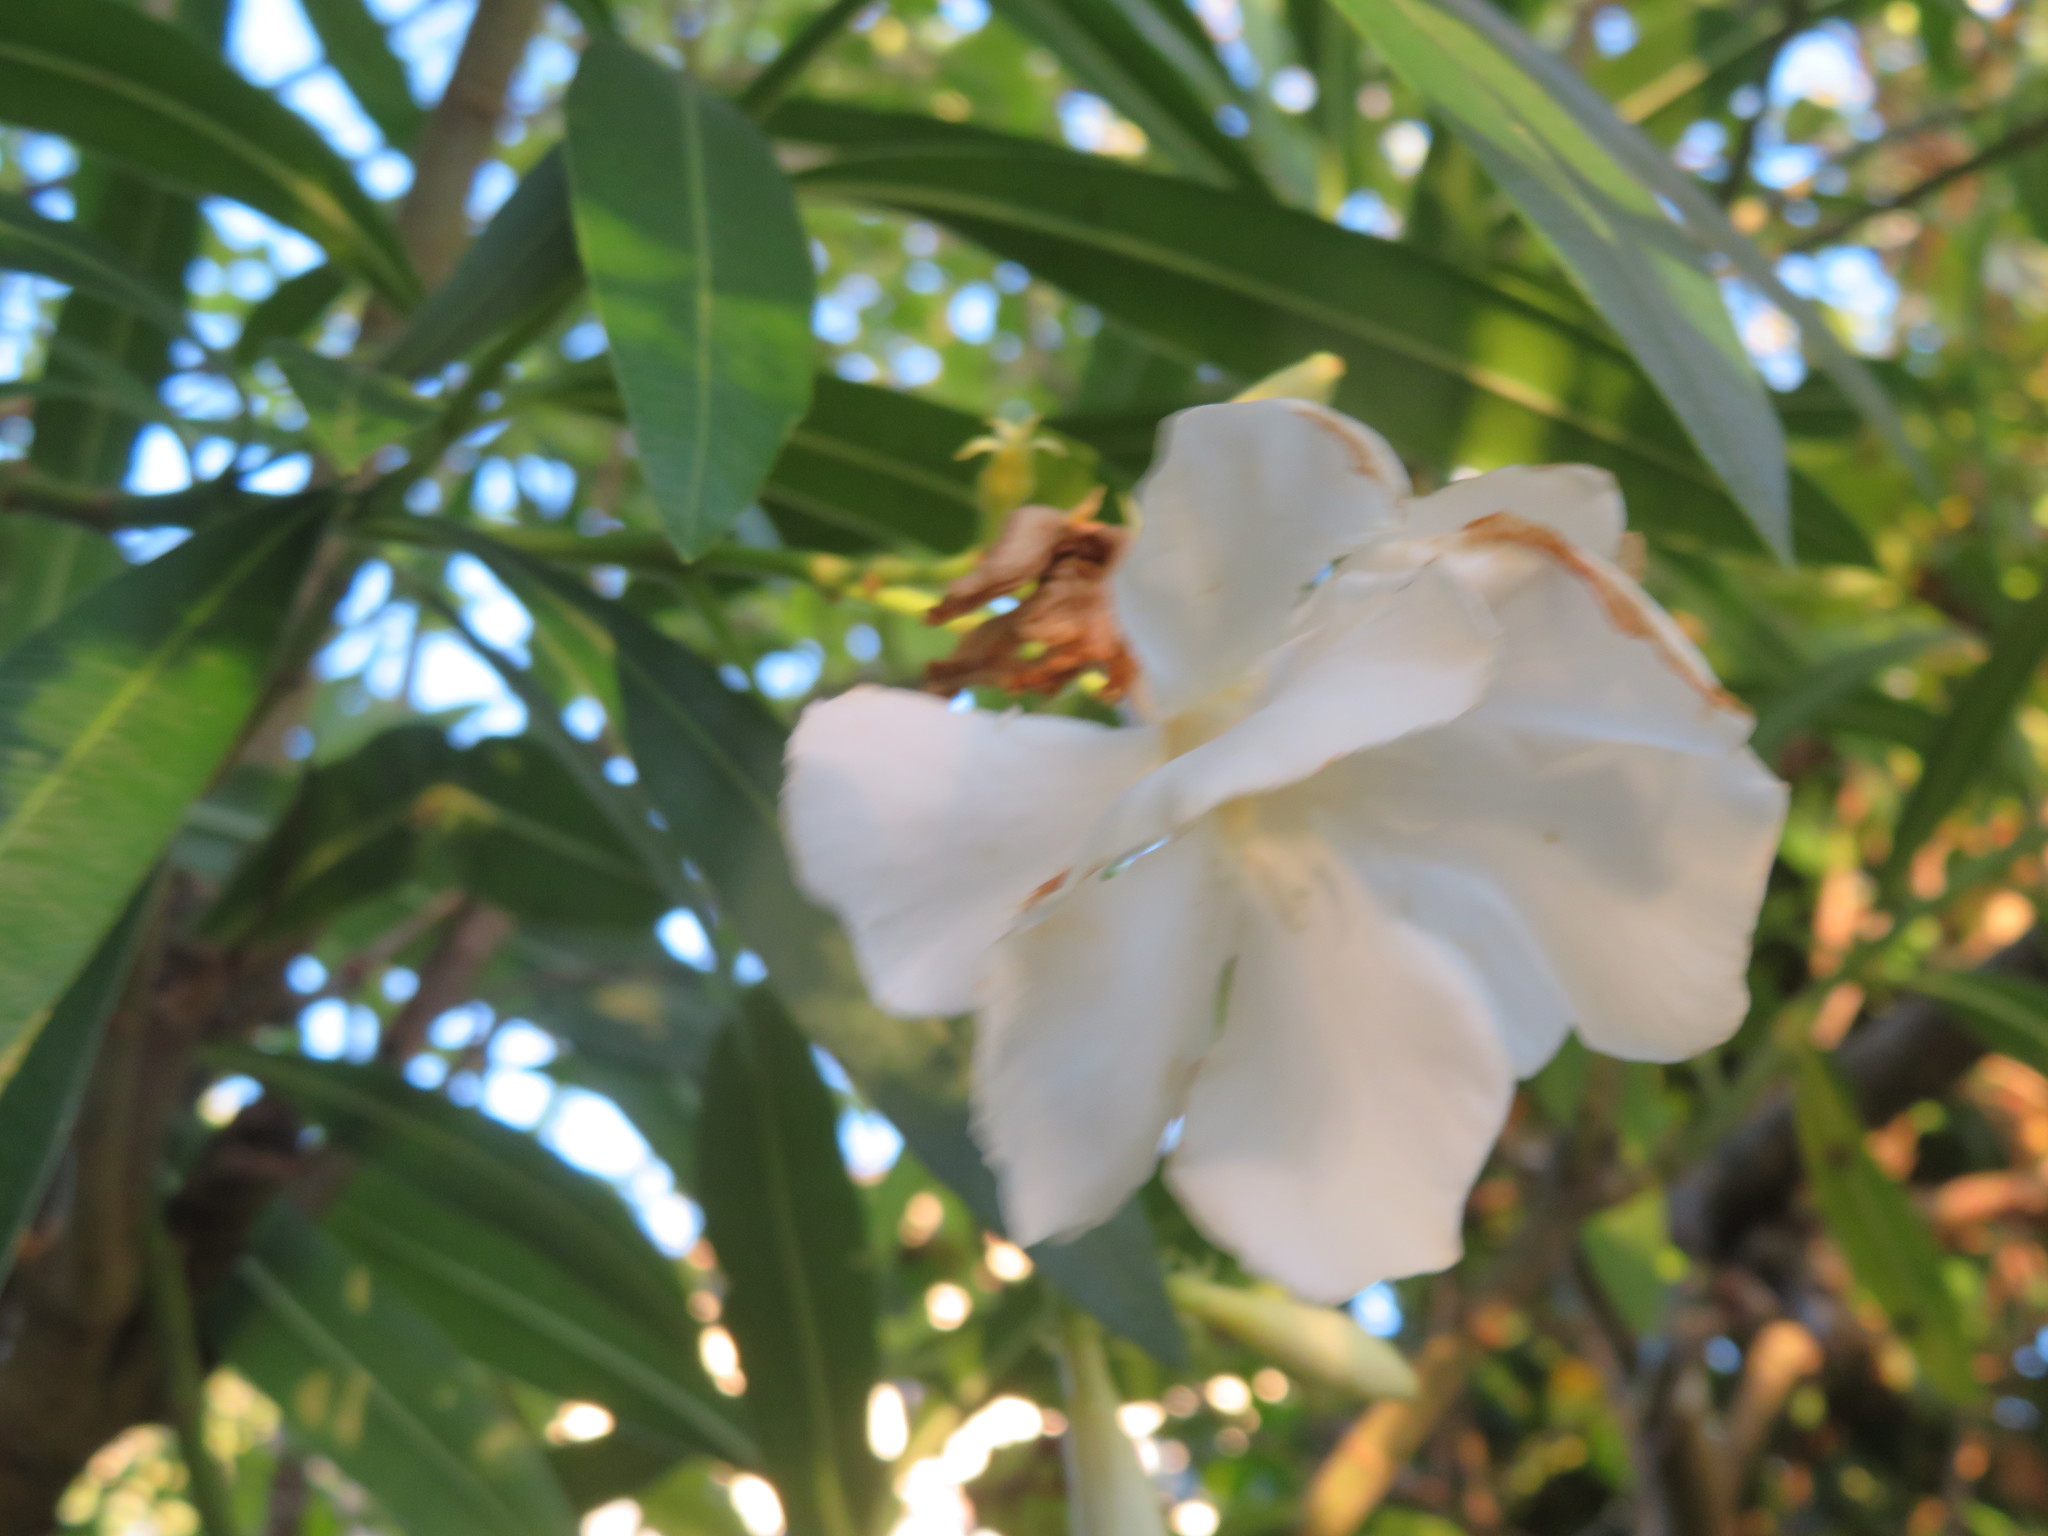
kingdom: Plantae
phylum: Tracheophyta
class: Magnoliopsida
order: Gentianales
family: Apocynaceae
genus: Nerium
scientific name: Nerium oleander
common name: Oleander
